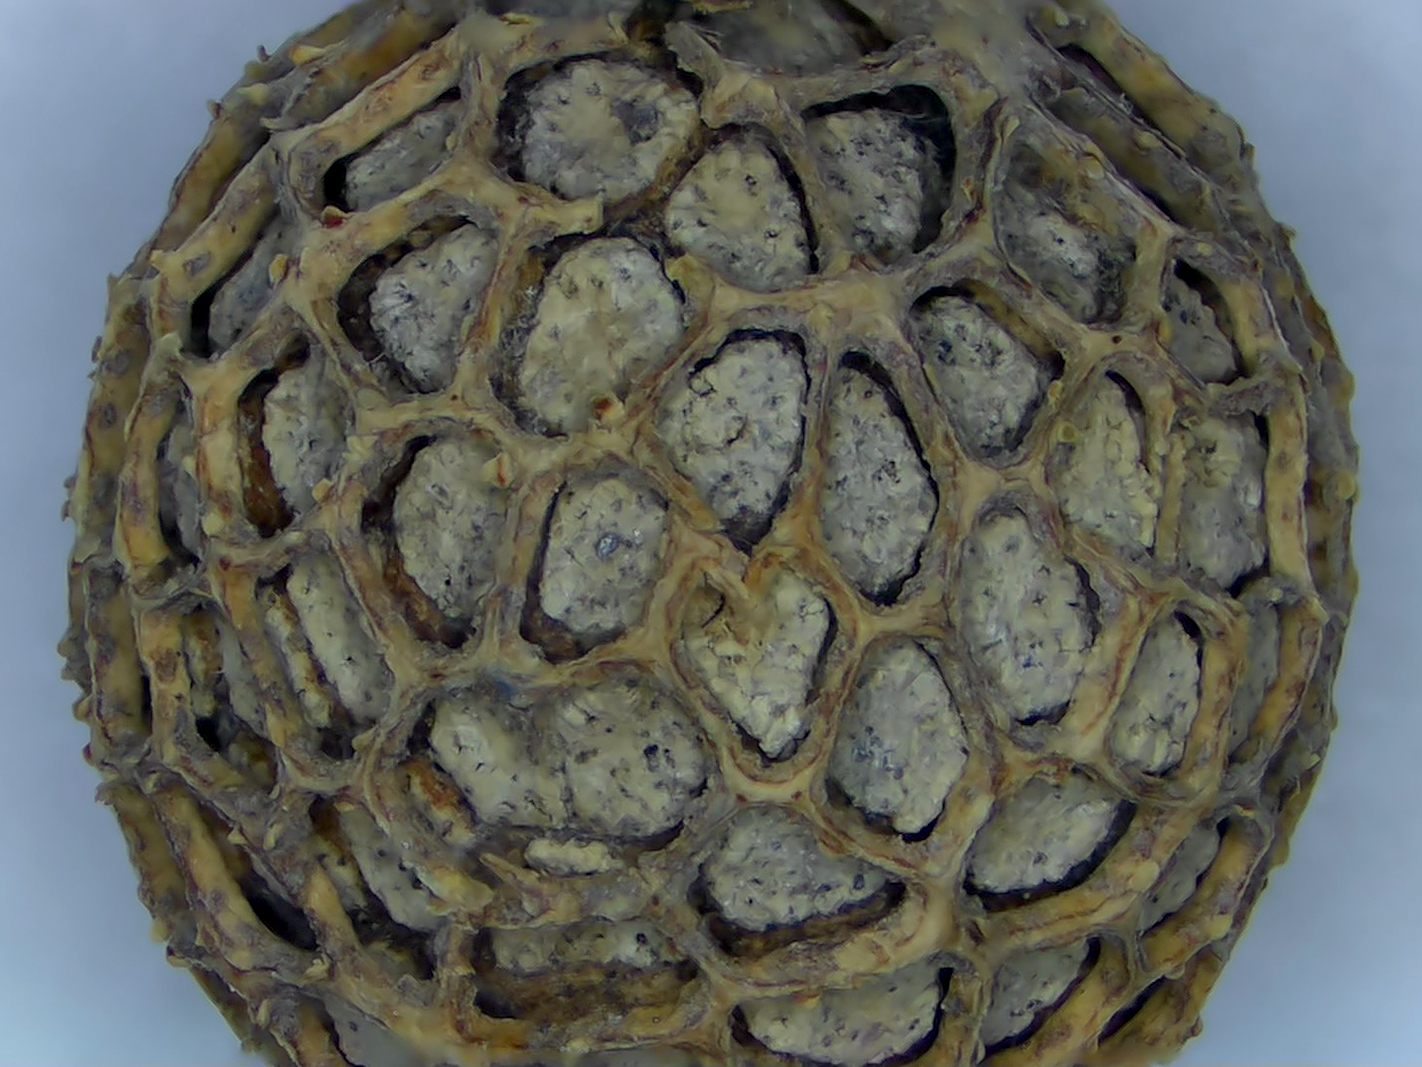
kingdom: Plantae
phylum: Tracheophyta
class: Magnoliopsida
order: Proteales
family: Platanaceae
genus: Platanus
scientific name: Platanus occidentalis
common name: American sycamore
